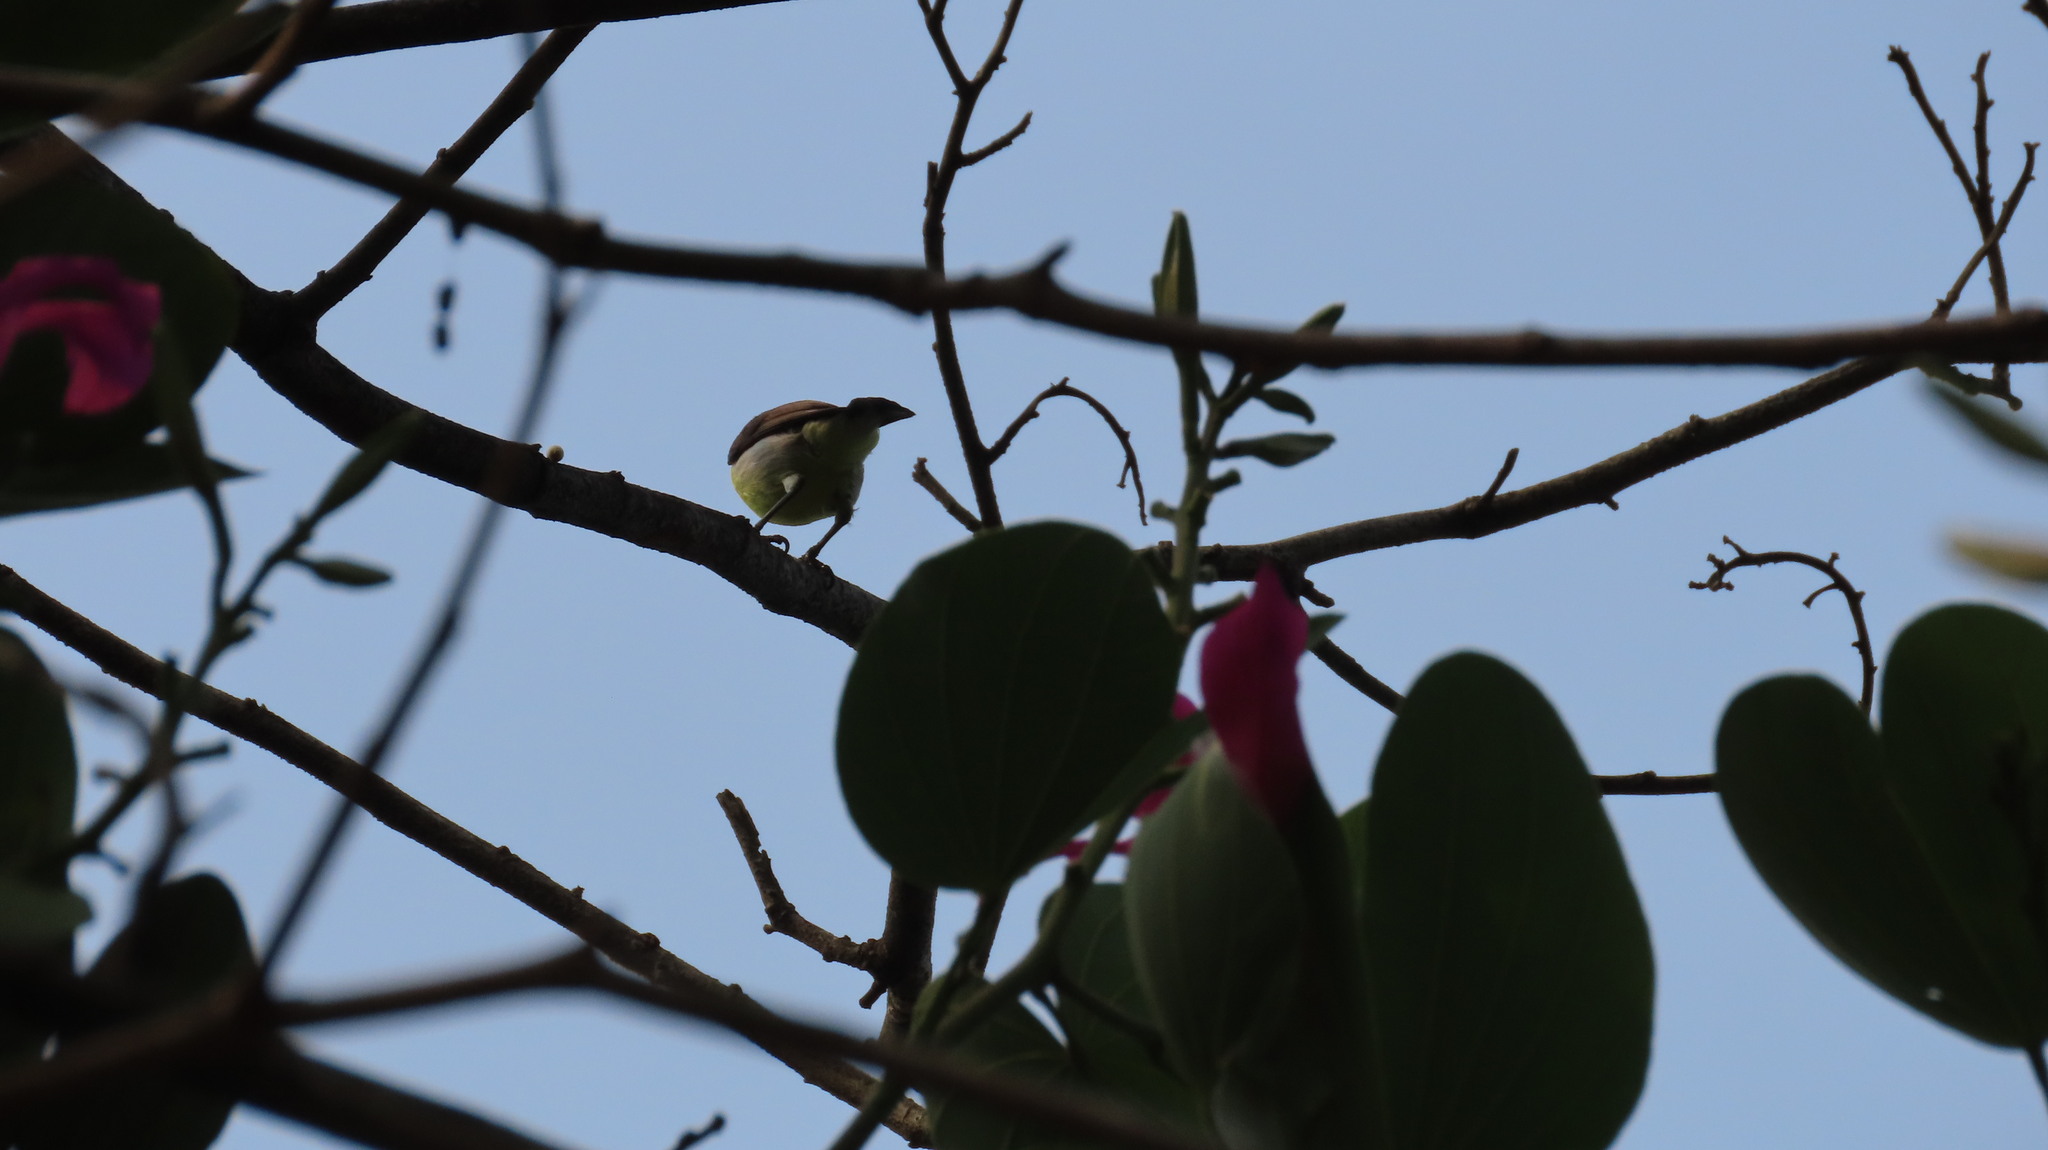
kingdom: Animalia
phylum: Chordata
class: Aves
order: Passeriformes
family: Nectariniidae
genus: Leptocoma
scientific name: Leptocoma zeylonica
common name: Purple-rumped sunbird
